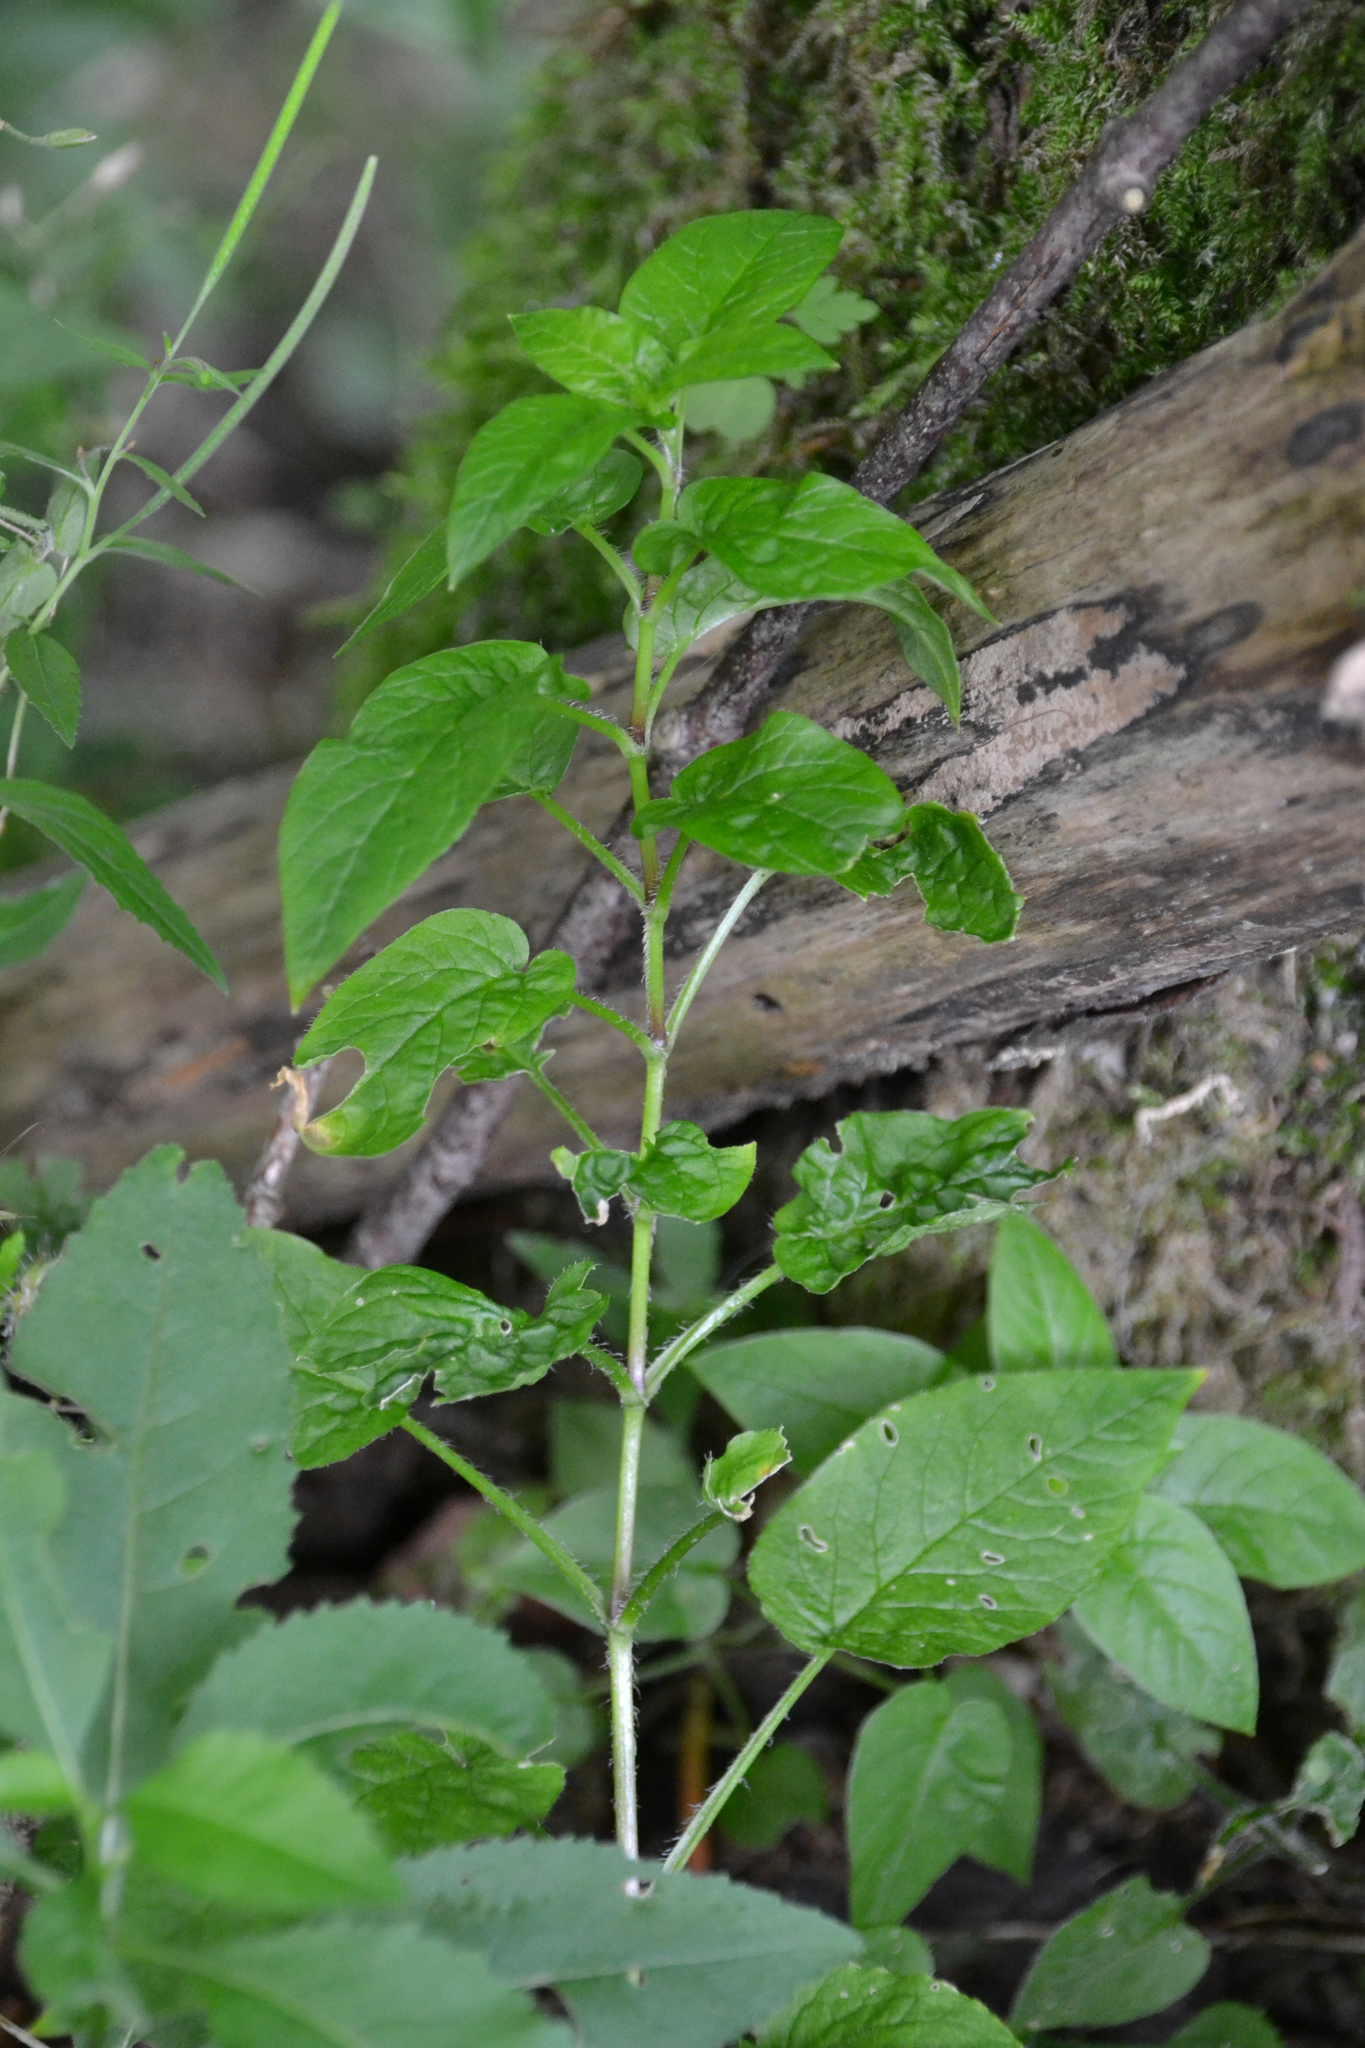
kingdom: Plantae
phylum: Tracheophyta
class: Magnoliopsida
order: Caryophyllales
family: Caryophyllaceae
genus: Stellaria
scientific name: Stellaria nemorum
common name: Wood stitchwort
